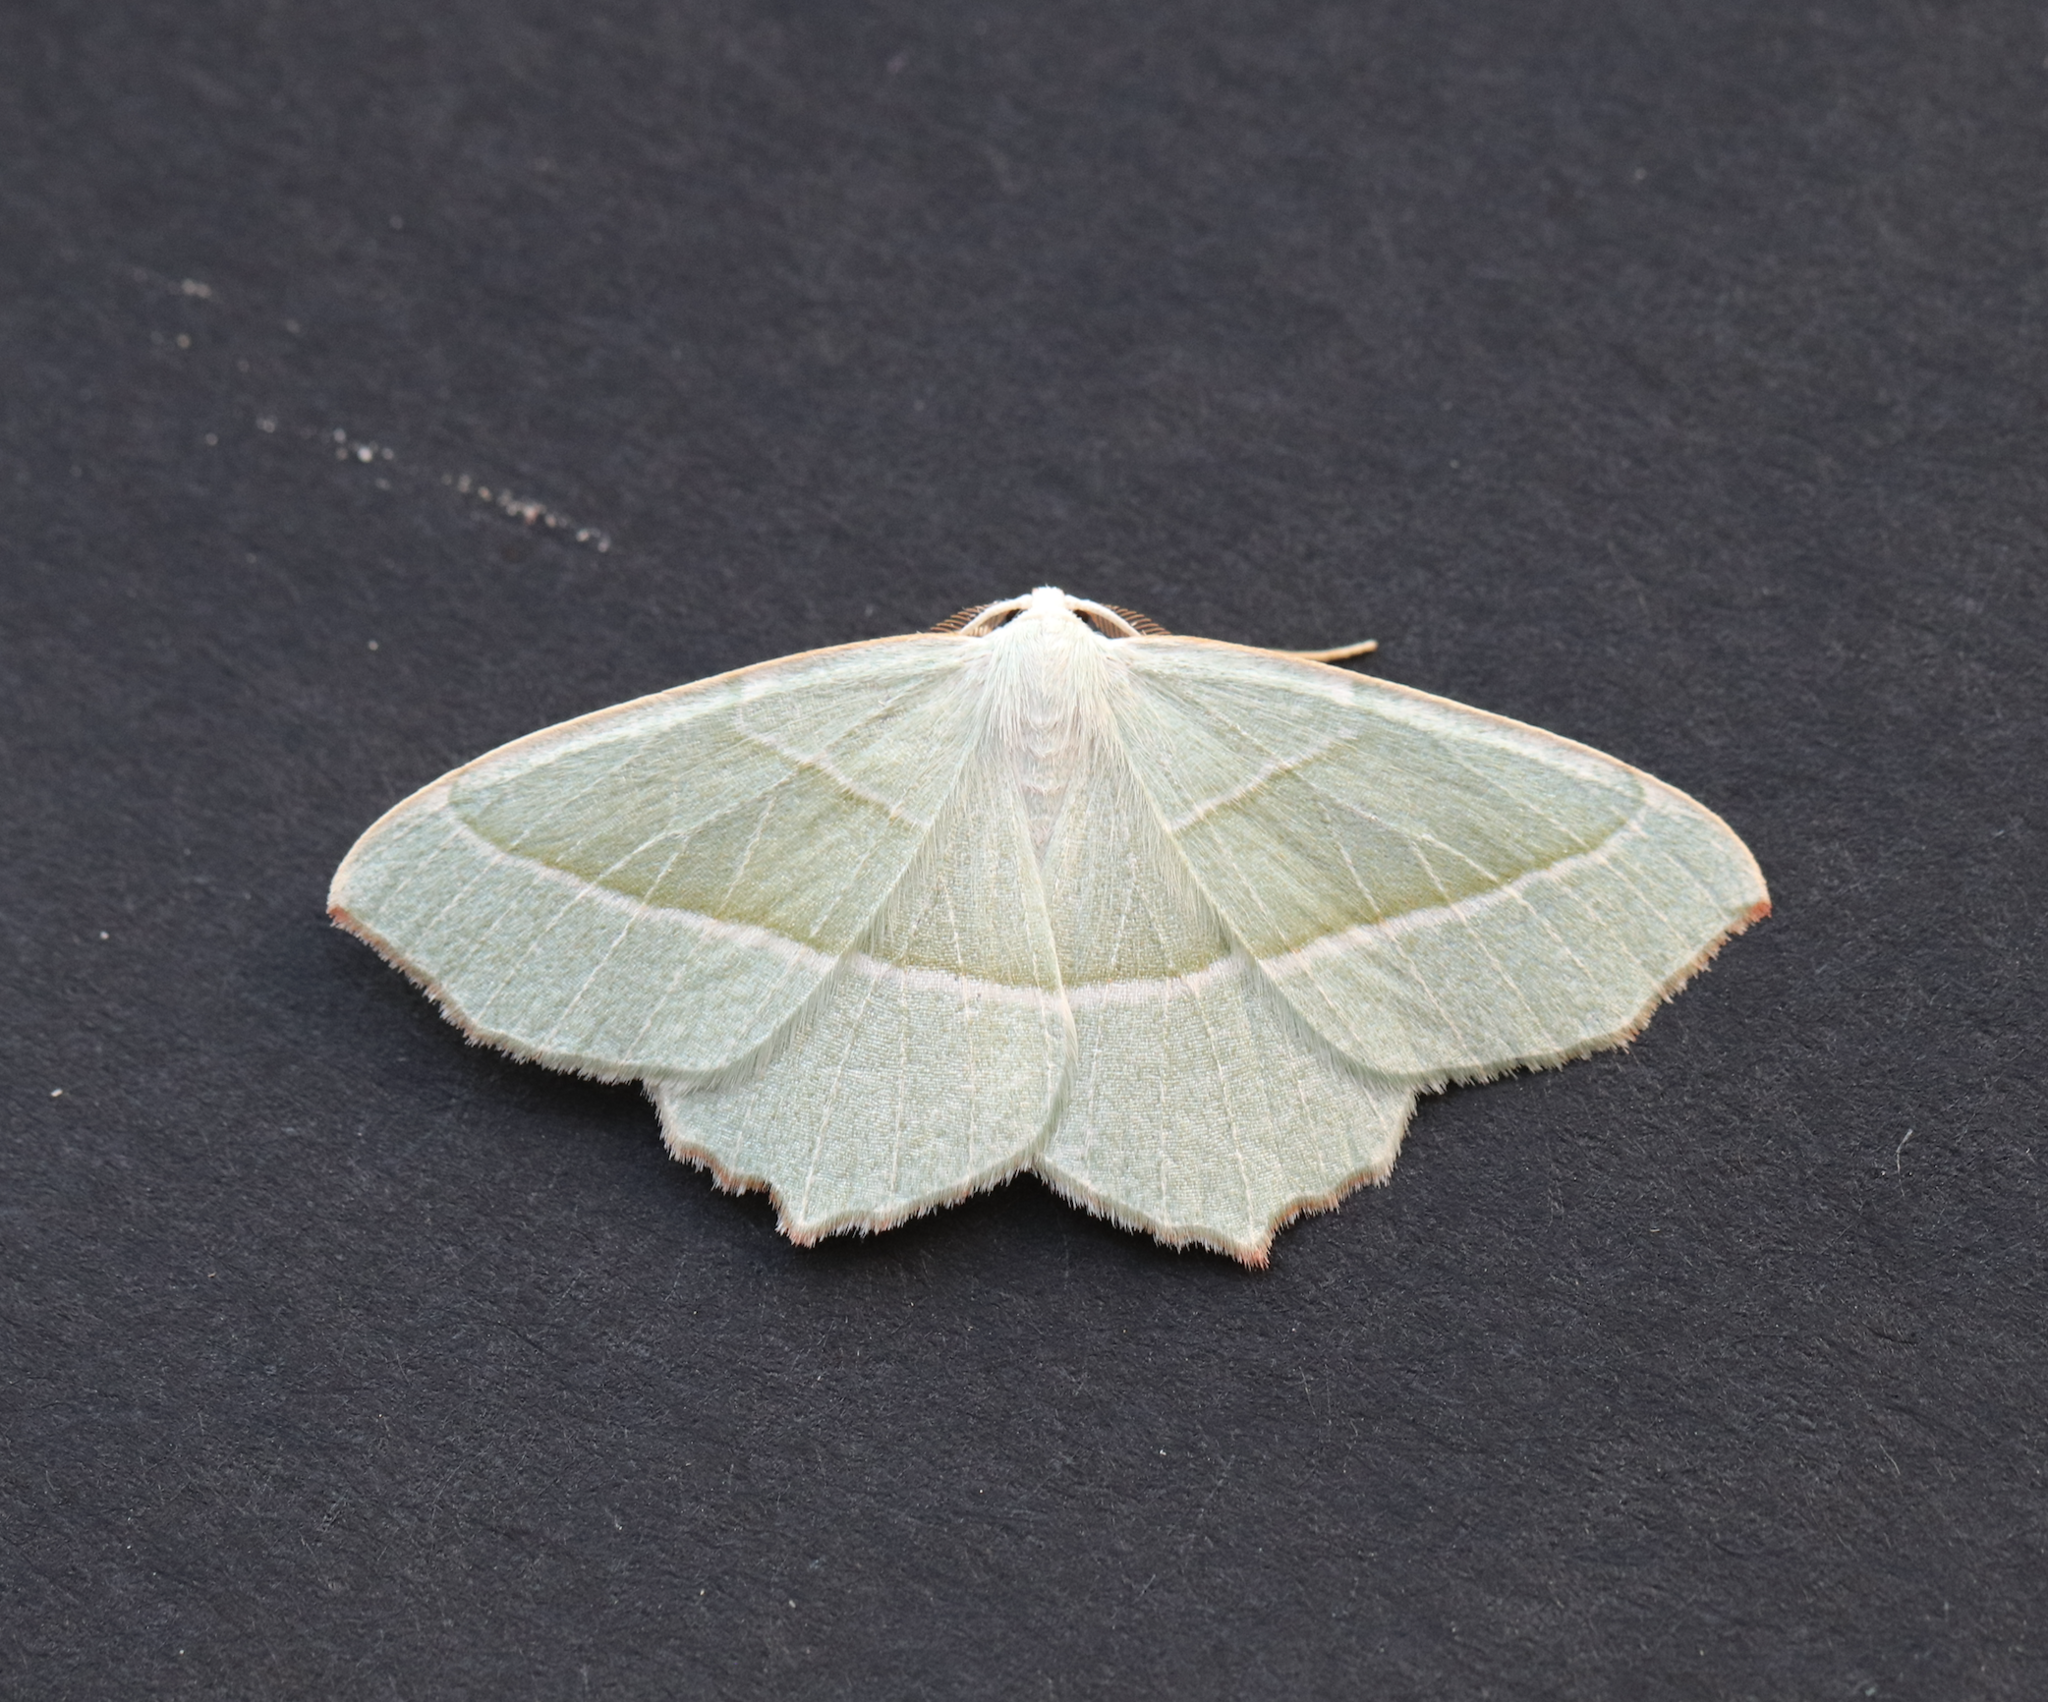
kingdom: Animalia
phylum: Arthropoda
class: Insecta
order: Lepidoptera
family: Geometridae
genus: Campaea
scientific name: Campaea margaritaria
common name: Light emerald
